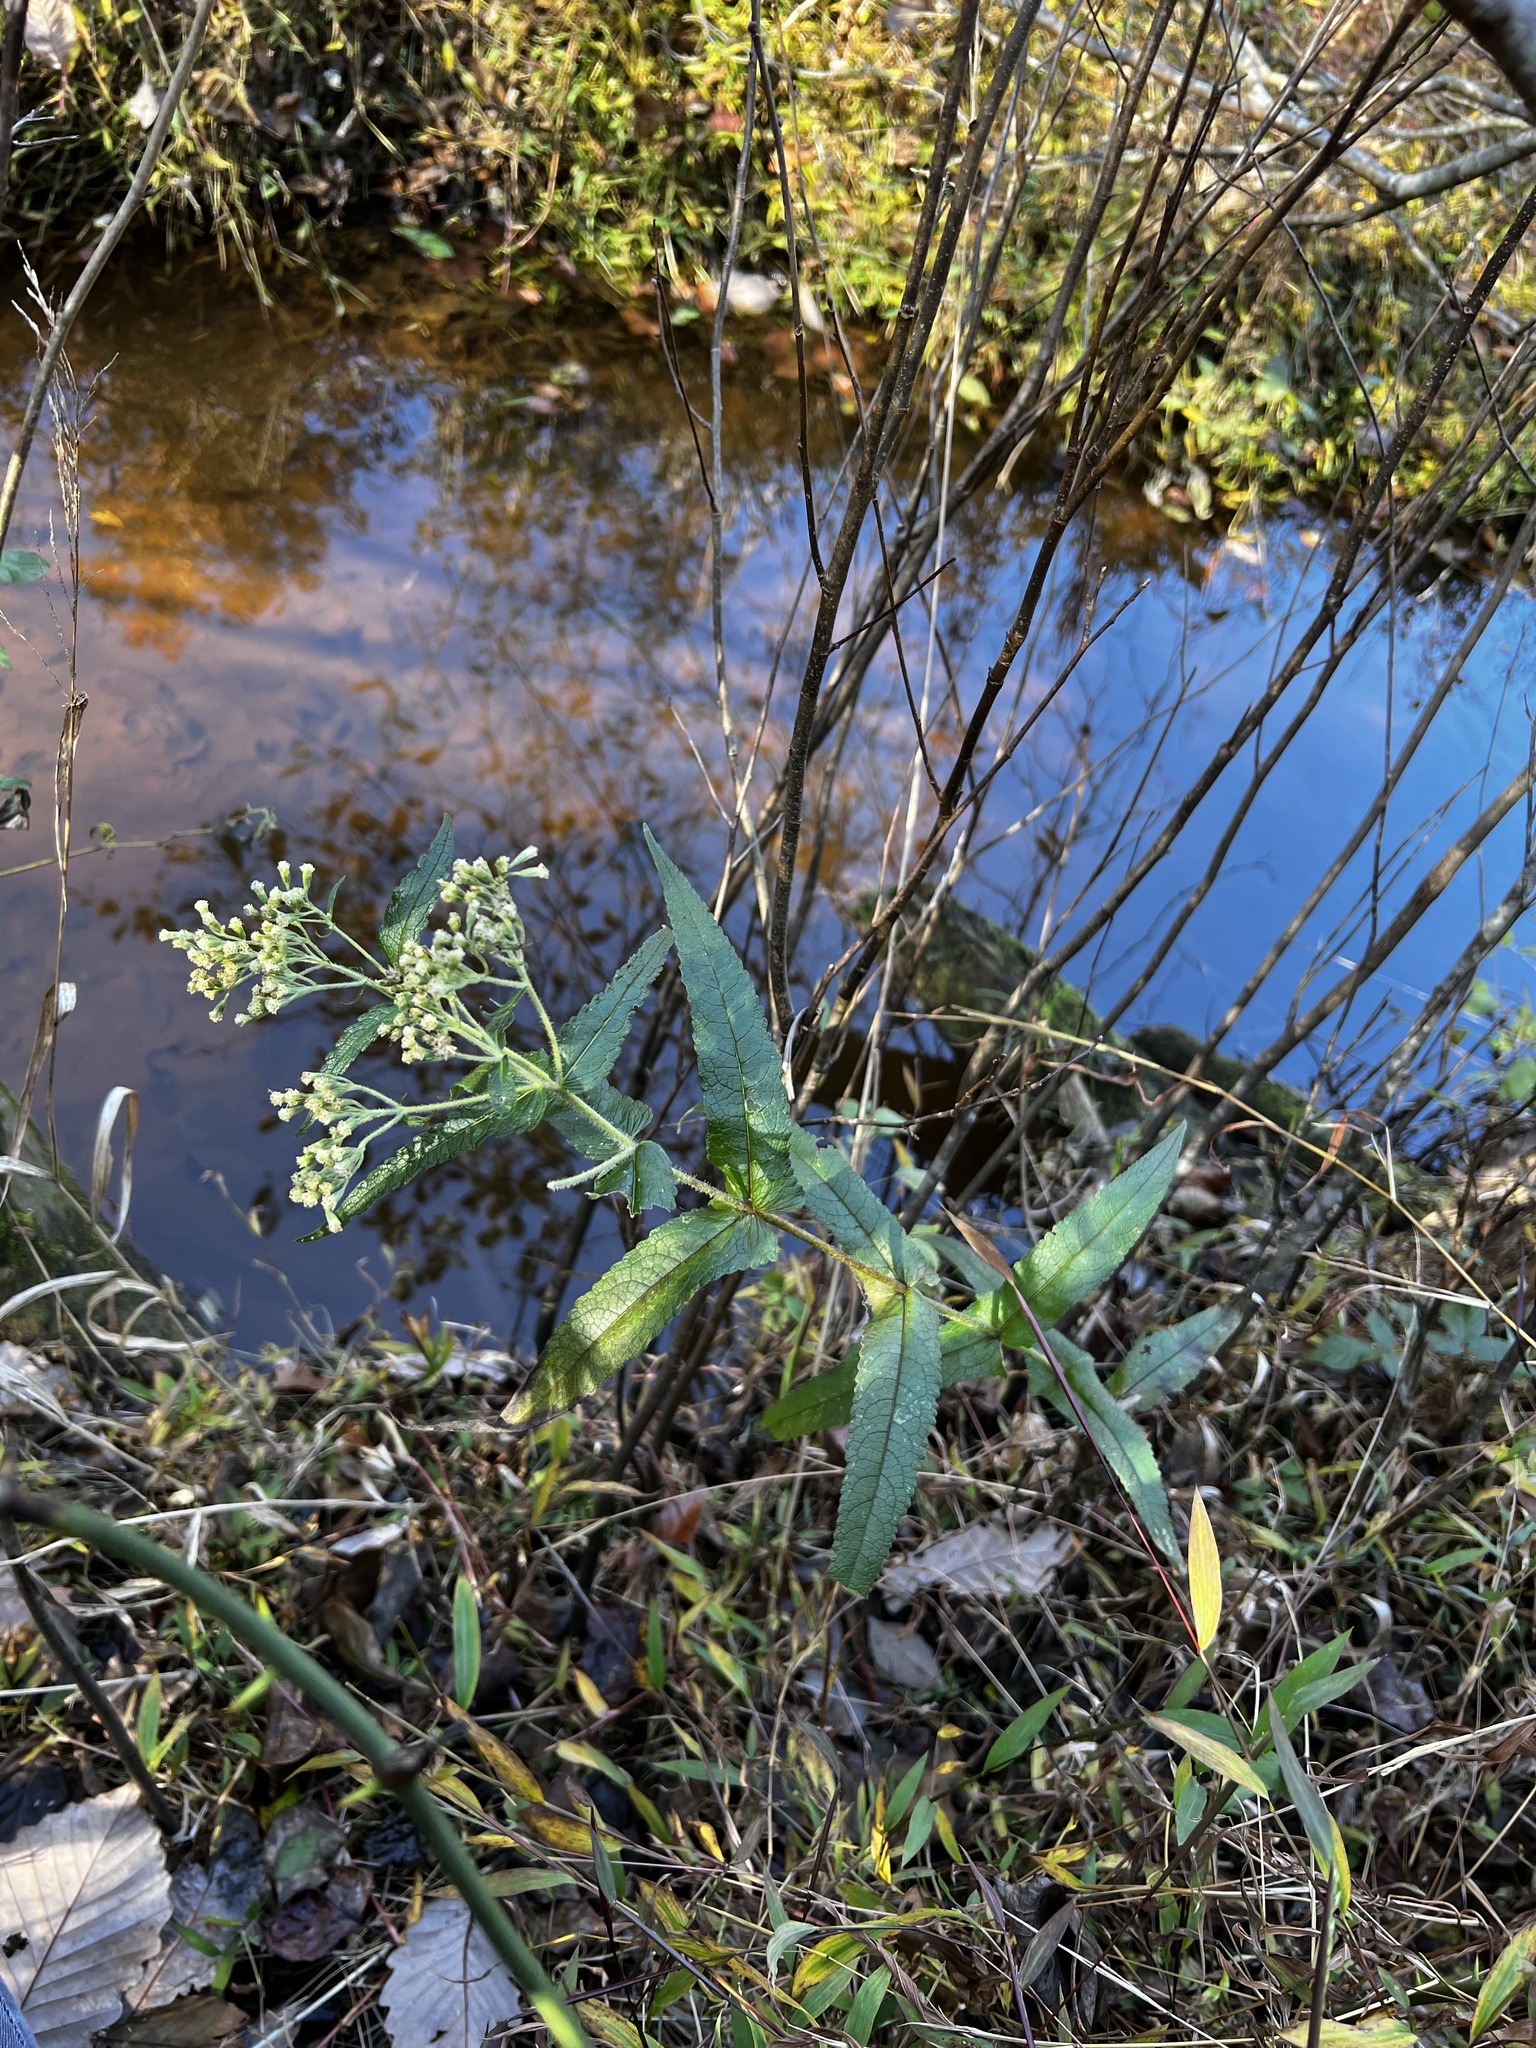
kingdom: Plantae
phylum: Tracheophyta
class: Magnoliopsida
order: Asterales
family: Asteraceae
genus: Eupatorium
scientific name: Eupatorium perfoliatum
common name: Boneset
